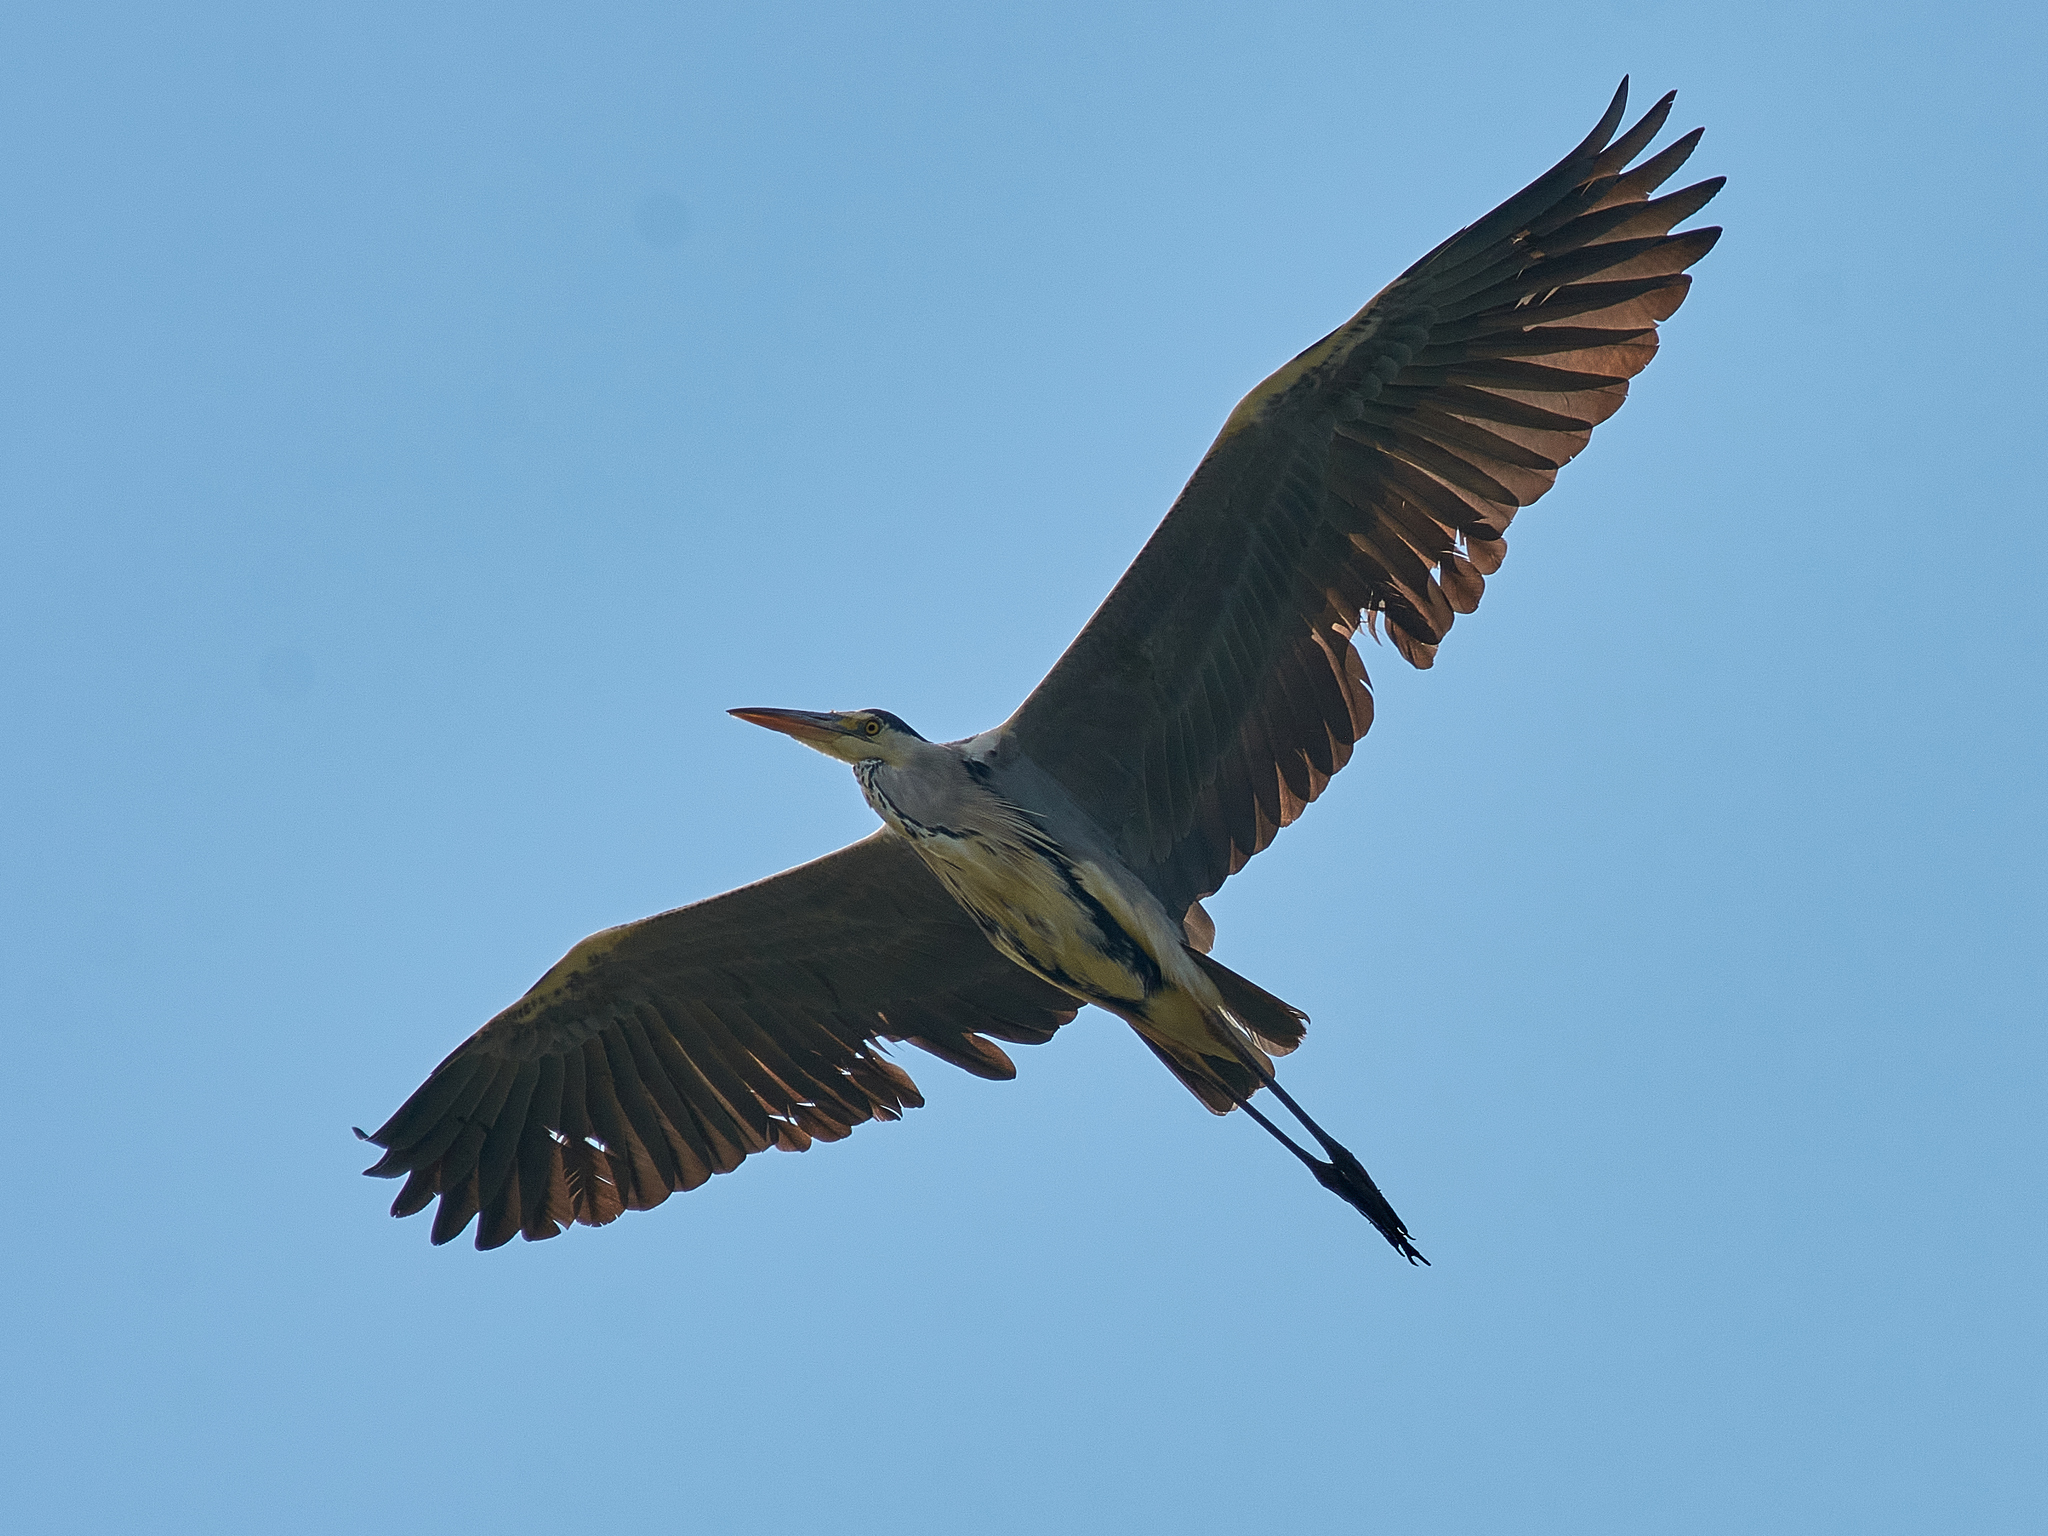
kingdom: Animalia
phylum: Chordata
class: Aves
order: Pelecaniformes
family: Ardeidae
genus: Ardea
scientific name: Ardea cinerea
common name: Grey heron
